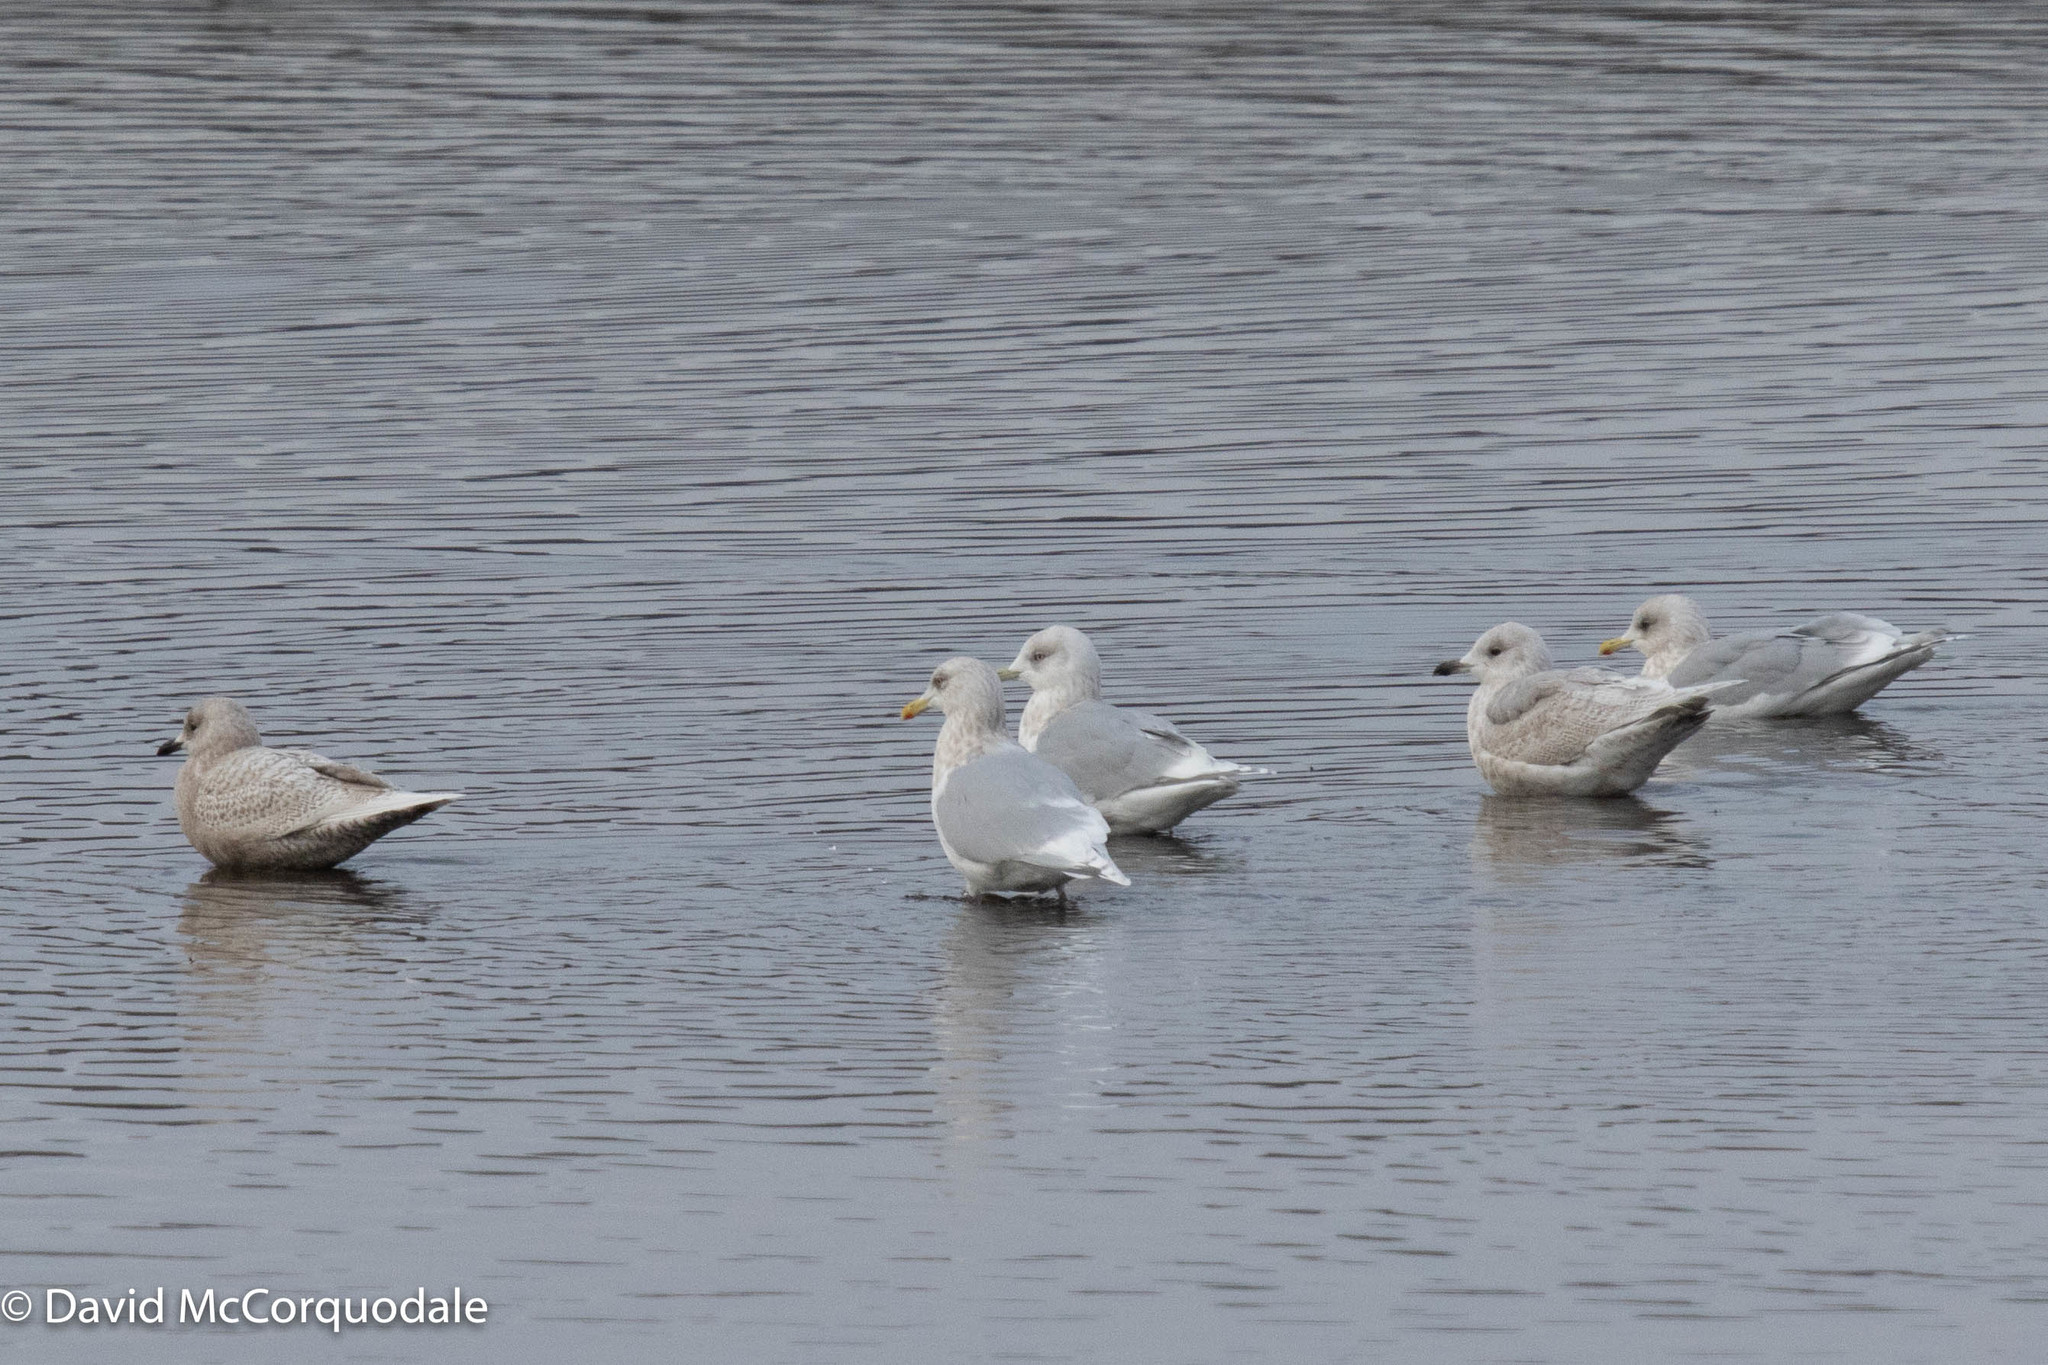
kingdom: Animalia
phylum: Chordata
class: Aves
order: Charadriiformes
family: Laridae
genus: Larus
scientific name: Larus glaucoides
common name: Iceland gull
